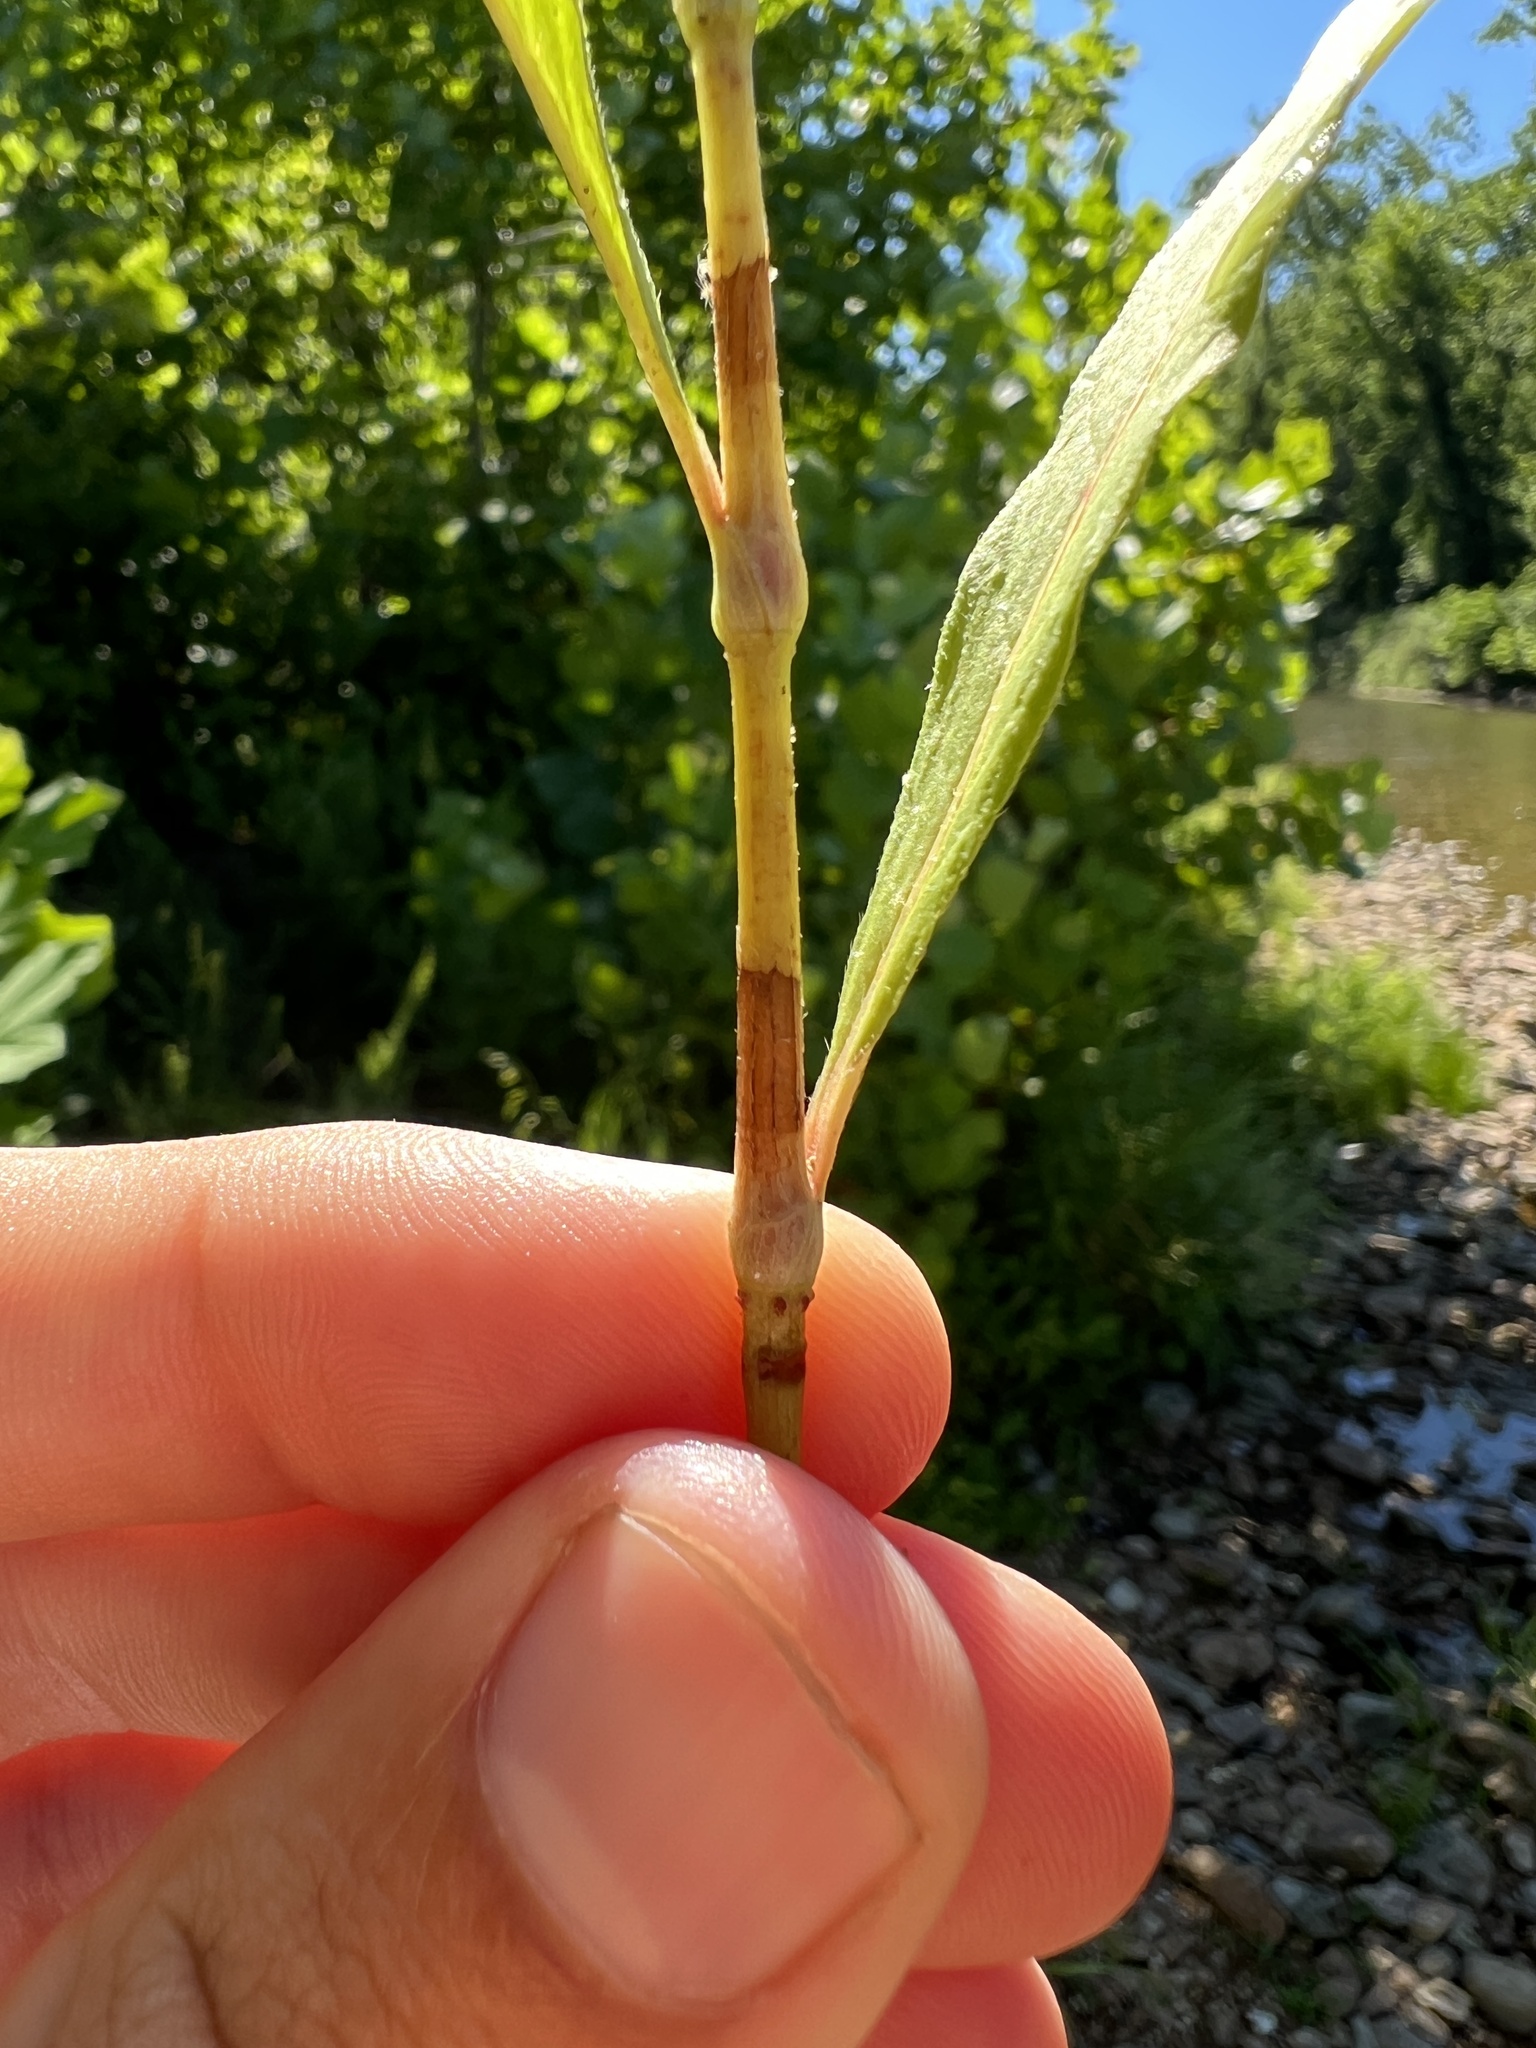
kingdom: Plantae
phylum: Tracheophyta
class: Magnoliopsida
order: Caryophyllales
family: Polygonaceae
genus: Persicaria
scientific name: Persicaria pensylvanica
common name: Pinkweed
